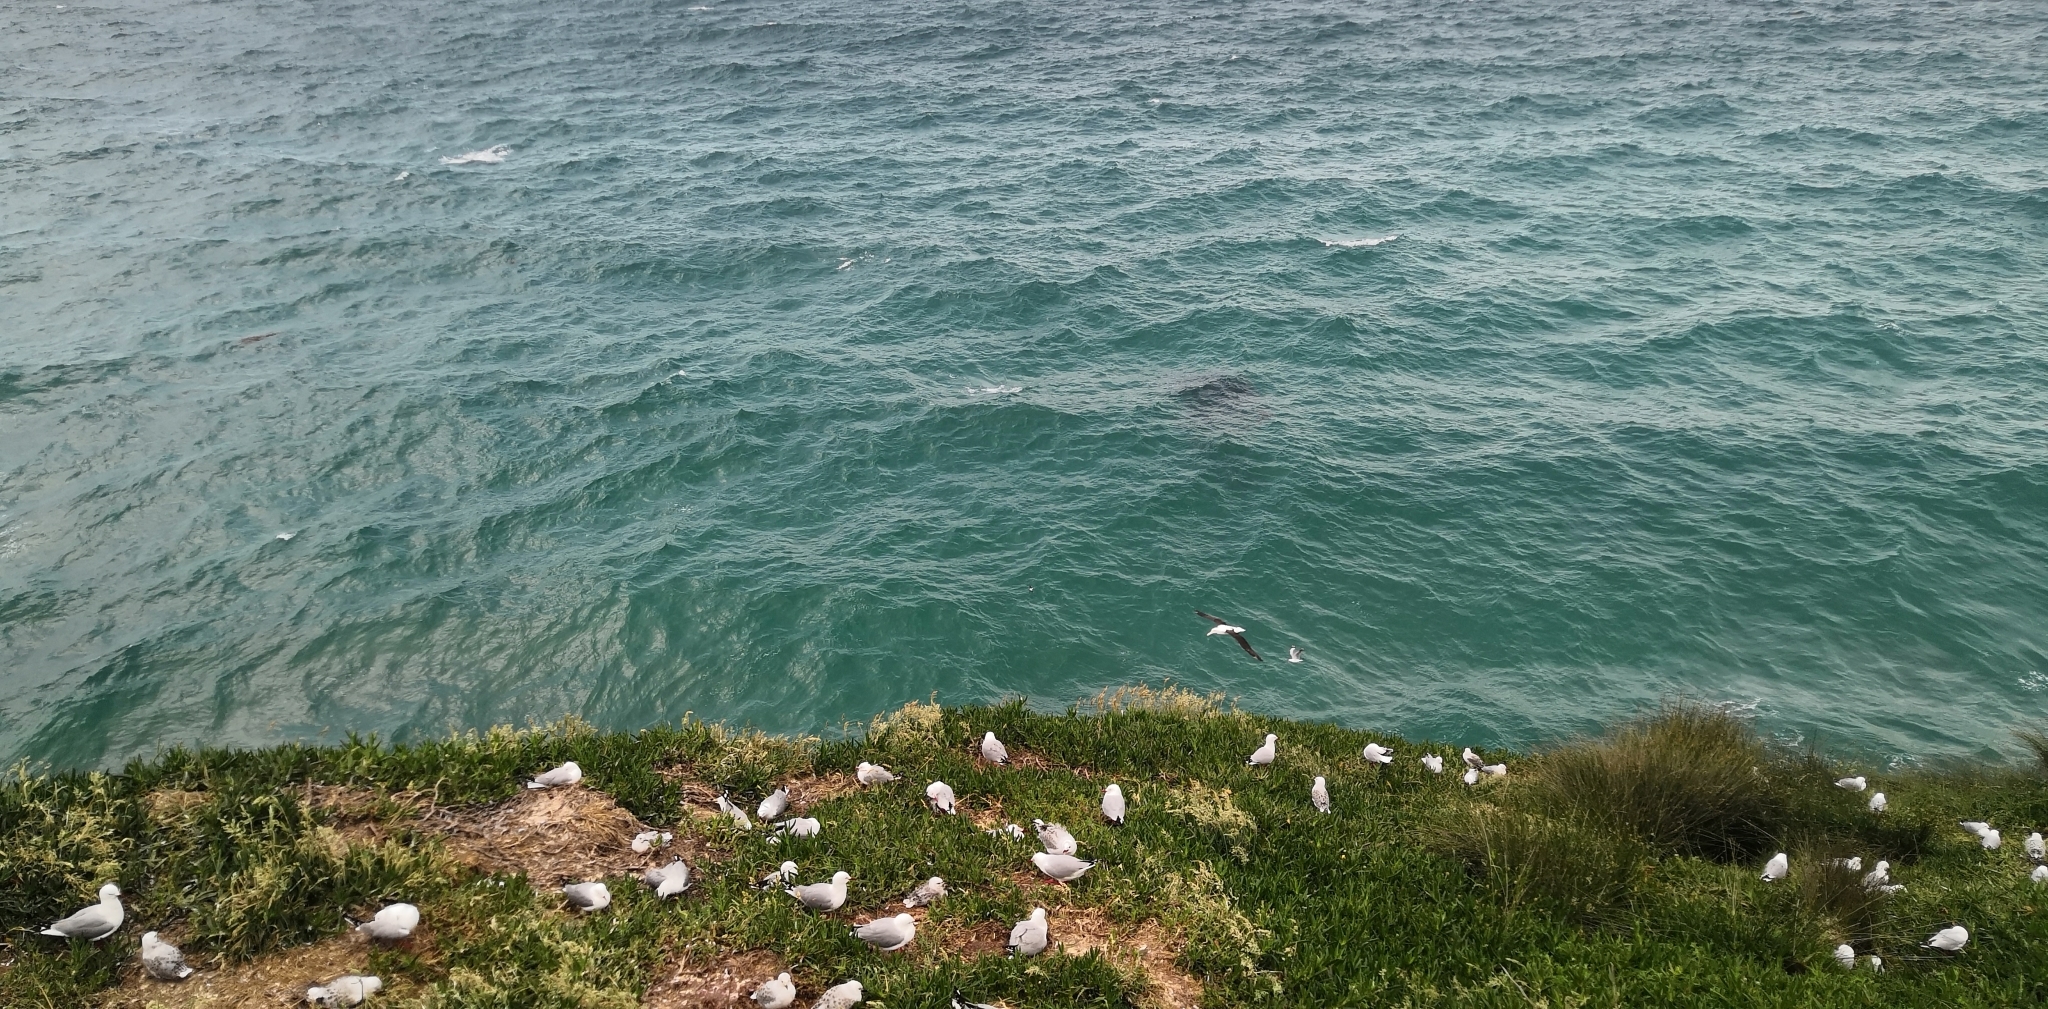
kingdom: Animalia
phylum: Chordata
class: Aves
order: Procellariiformes
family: Diomedeidae
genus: Diomedea
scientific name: Diomedea sanfordi
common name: Northern royal albatross
